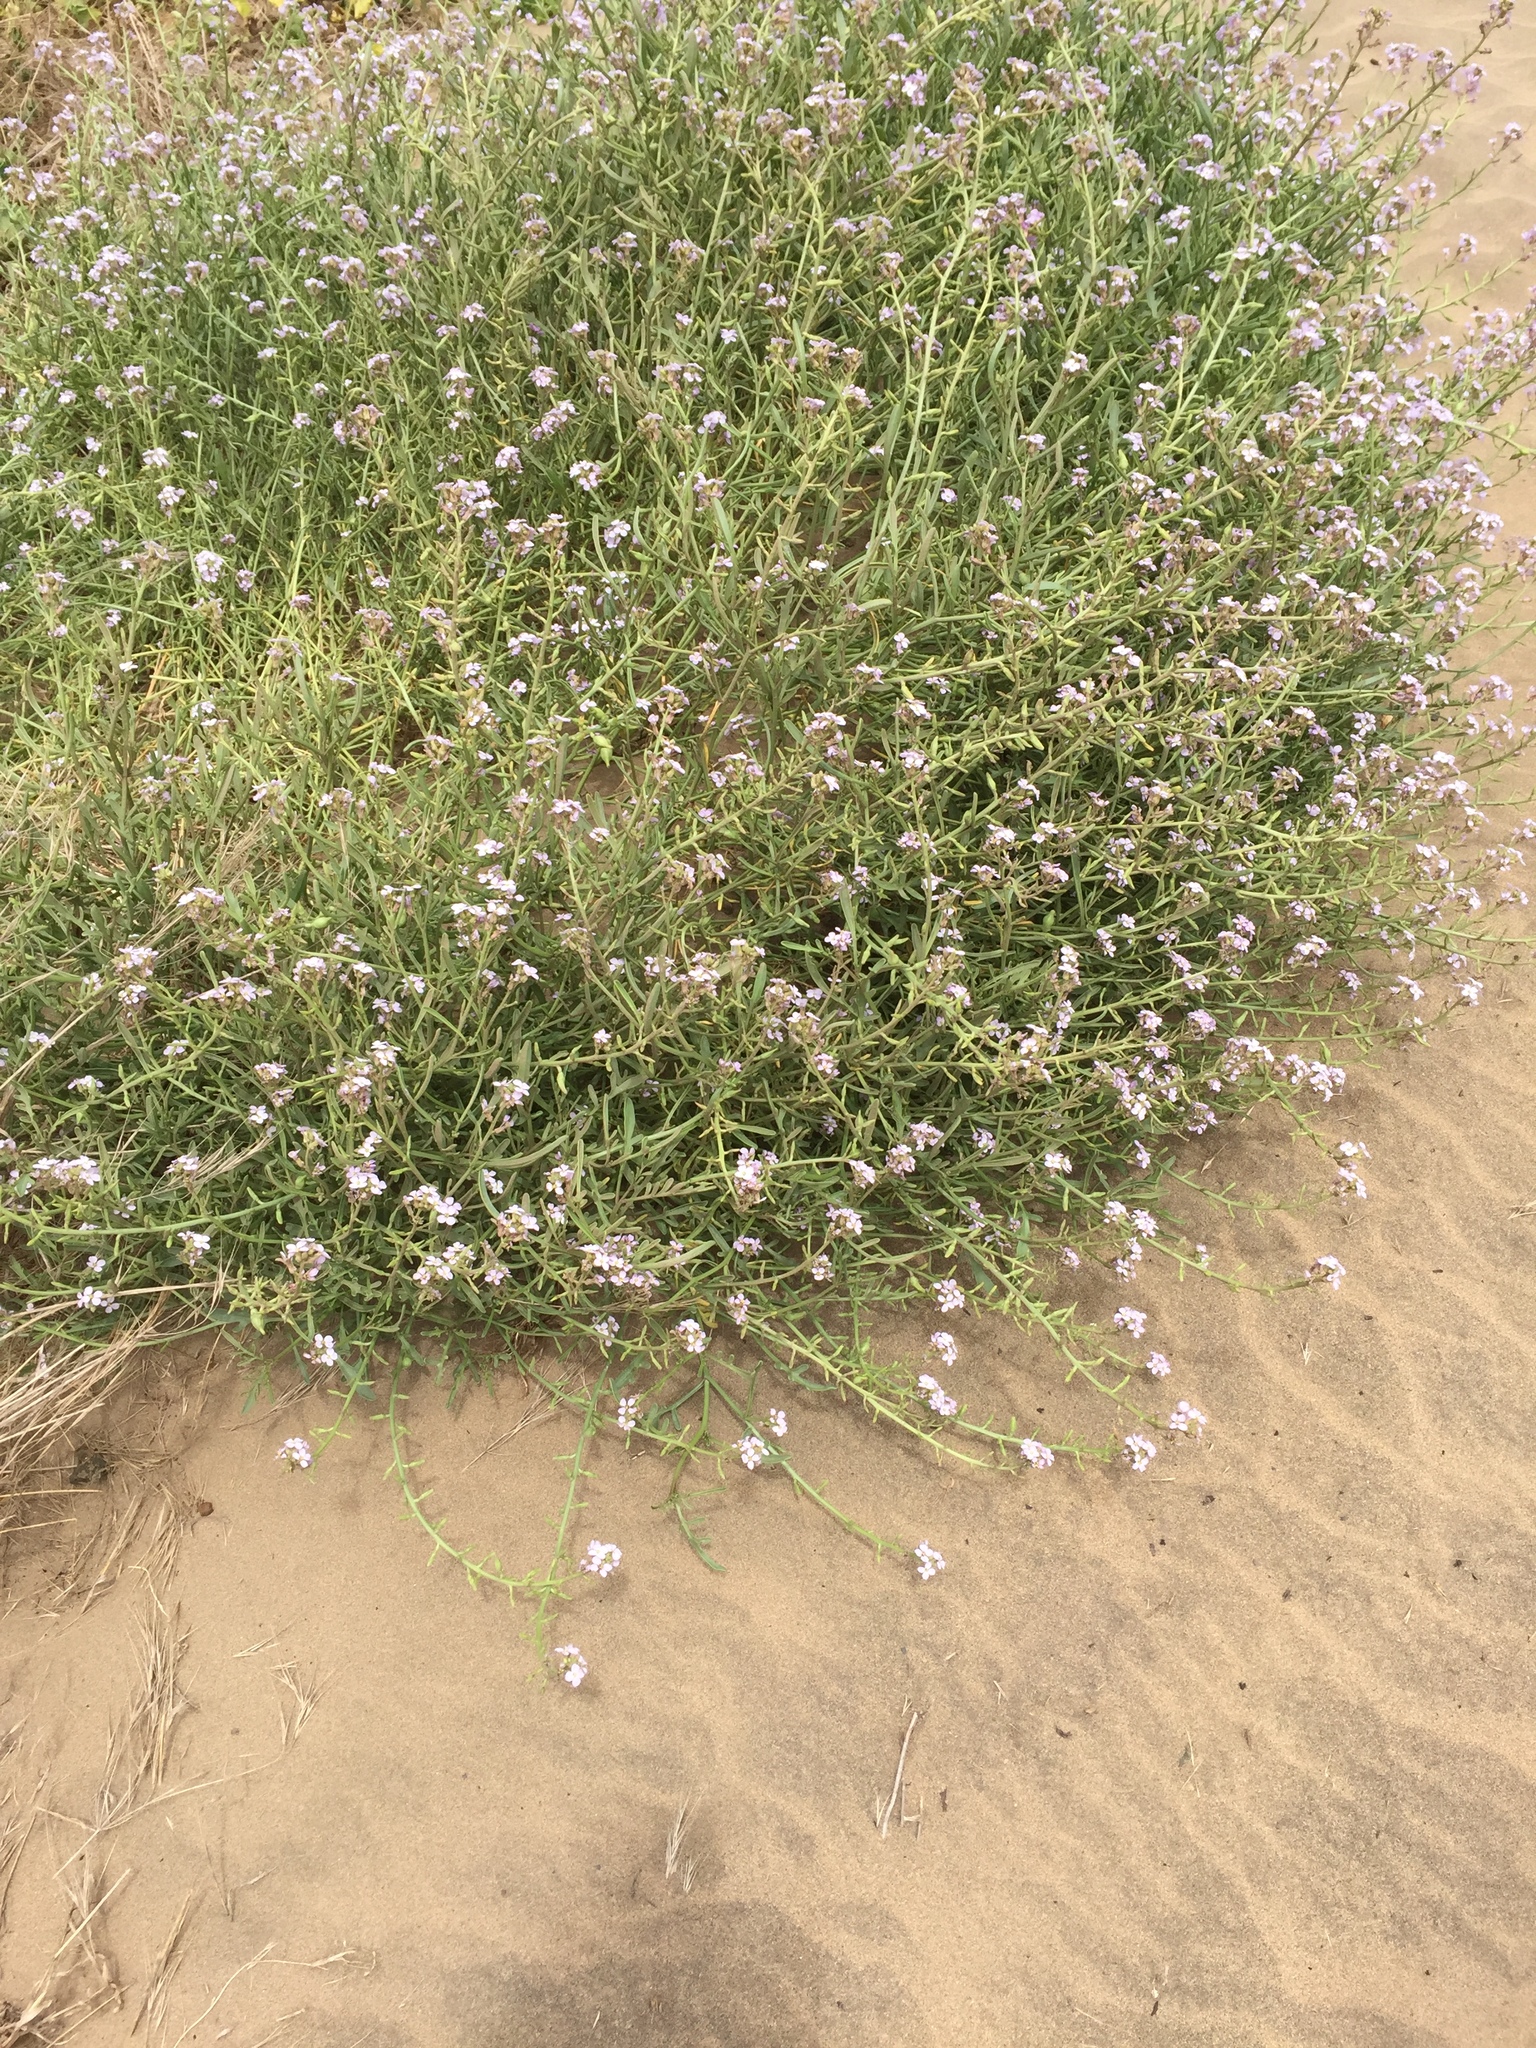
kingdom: Plantae
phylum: Tracheophyta
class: Magnoliopsida
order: Brassicales
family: Brassicaceae
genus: Cakile
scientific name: Cakile maritima
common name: Sea rocket
